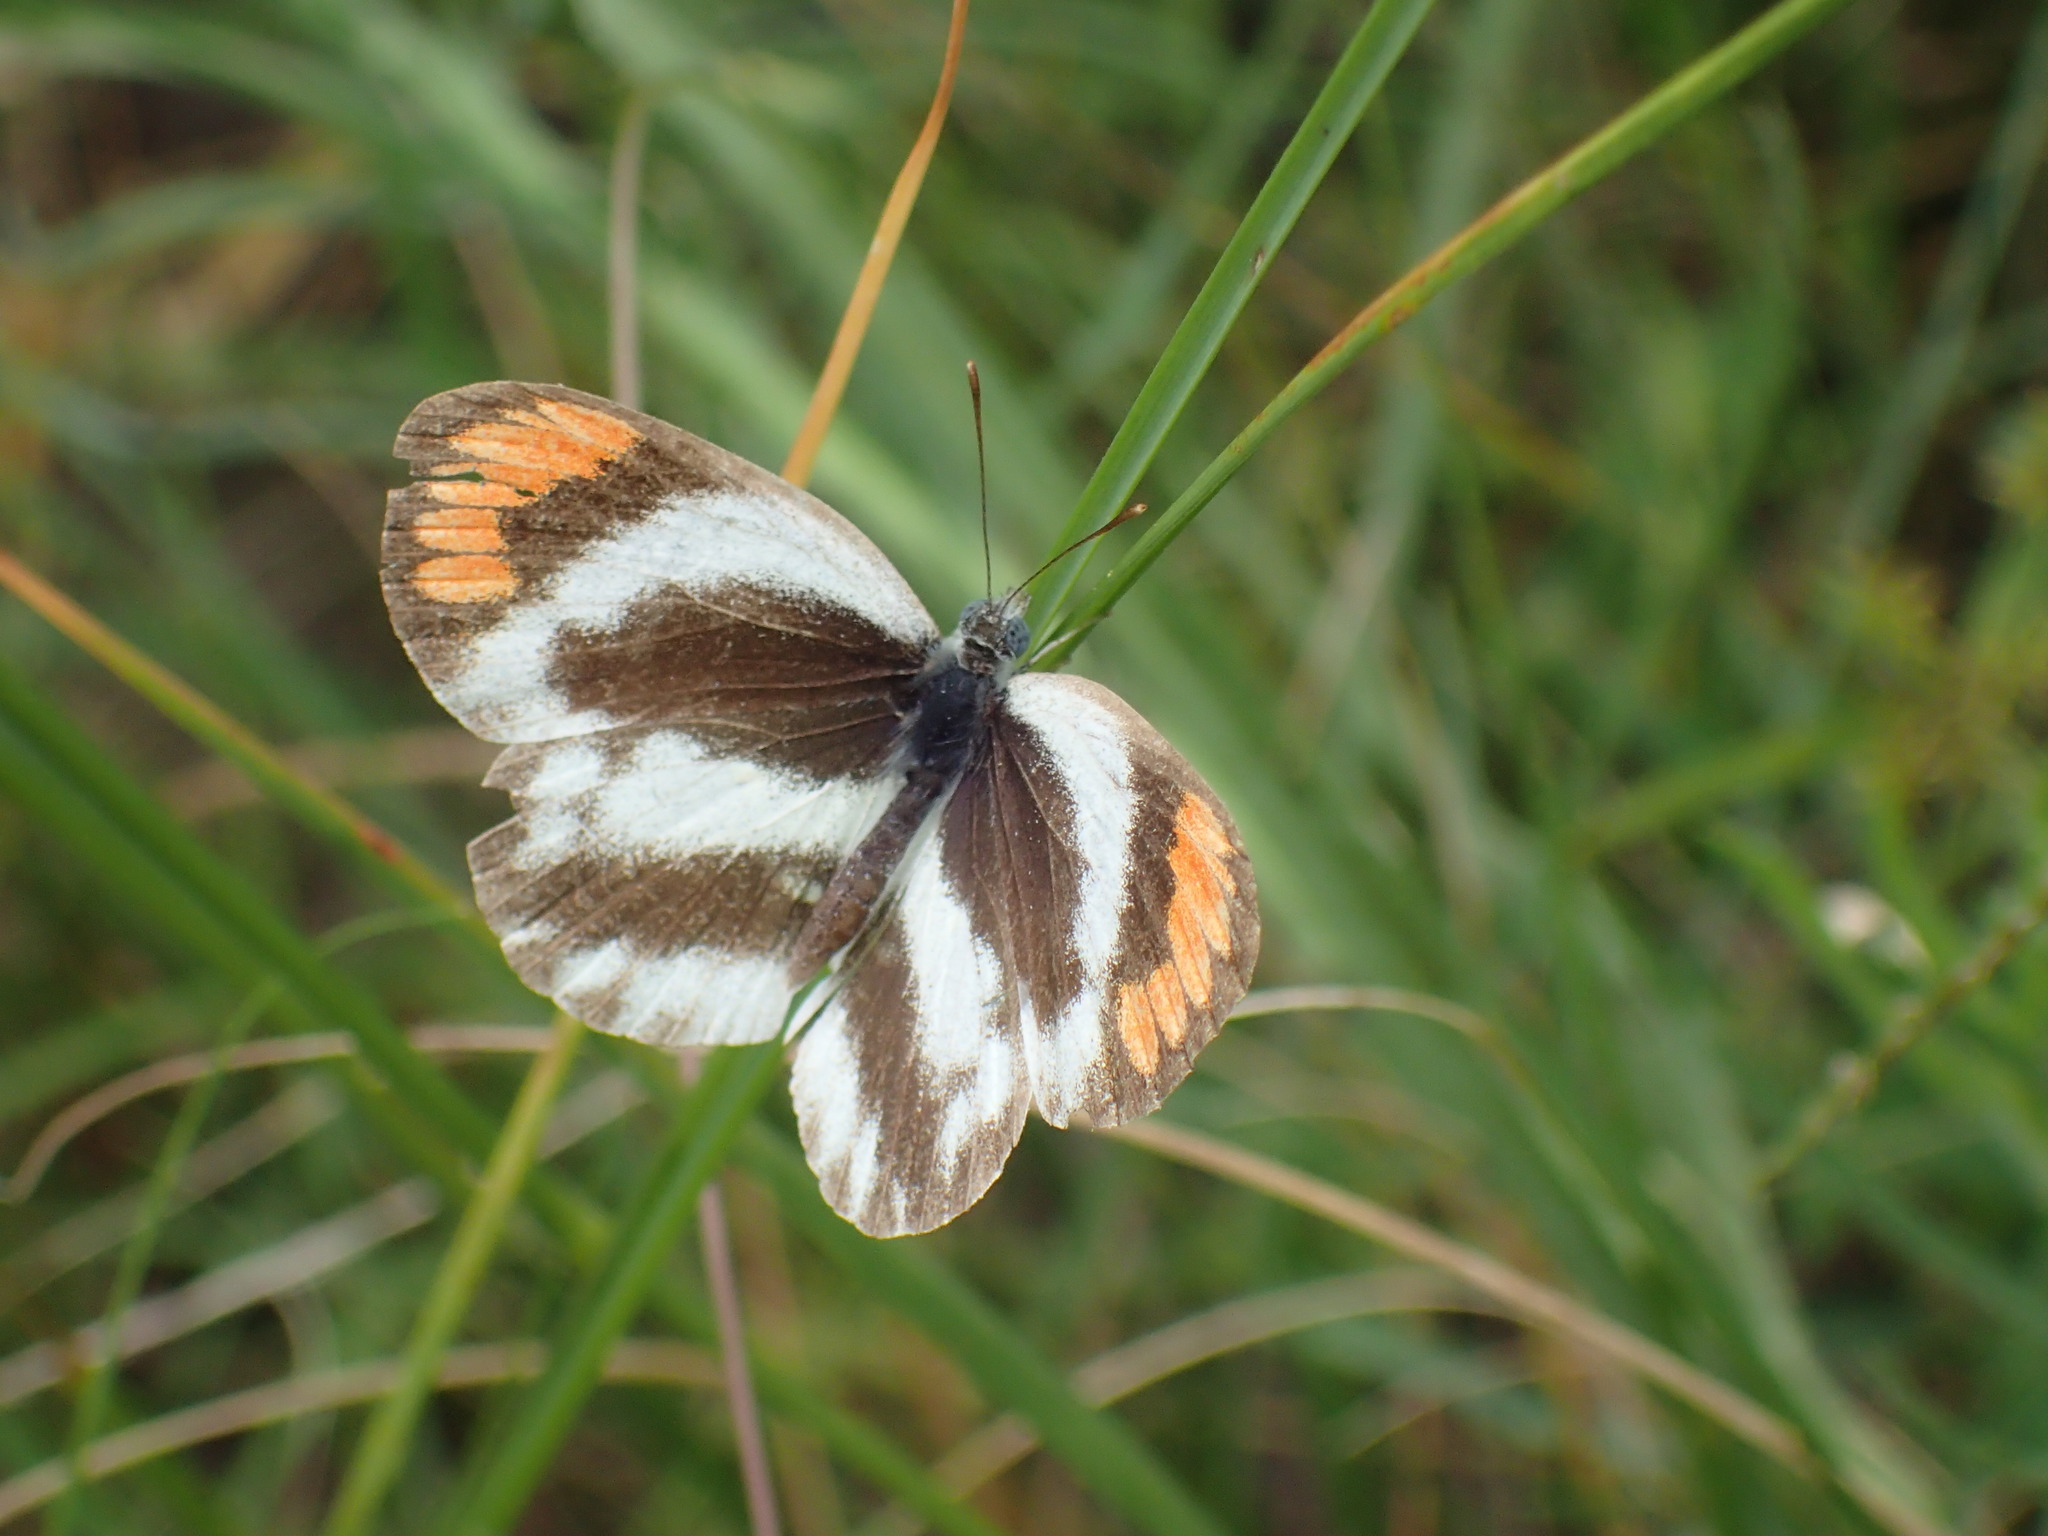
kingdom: Animalia
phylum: Arthropoda
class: Insecta
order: Lepidoptera
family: Pieridae
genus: Colotis
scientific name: Colotis euippe
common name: Round-winged orange tip
